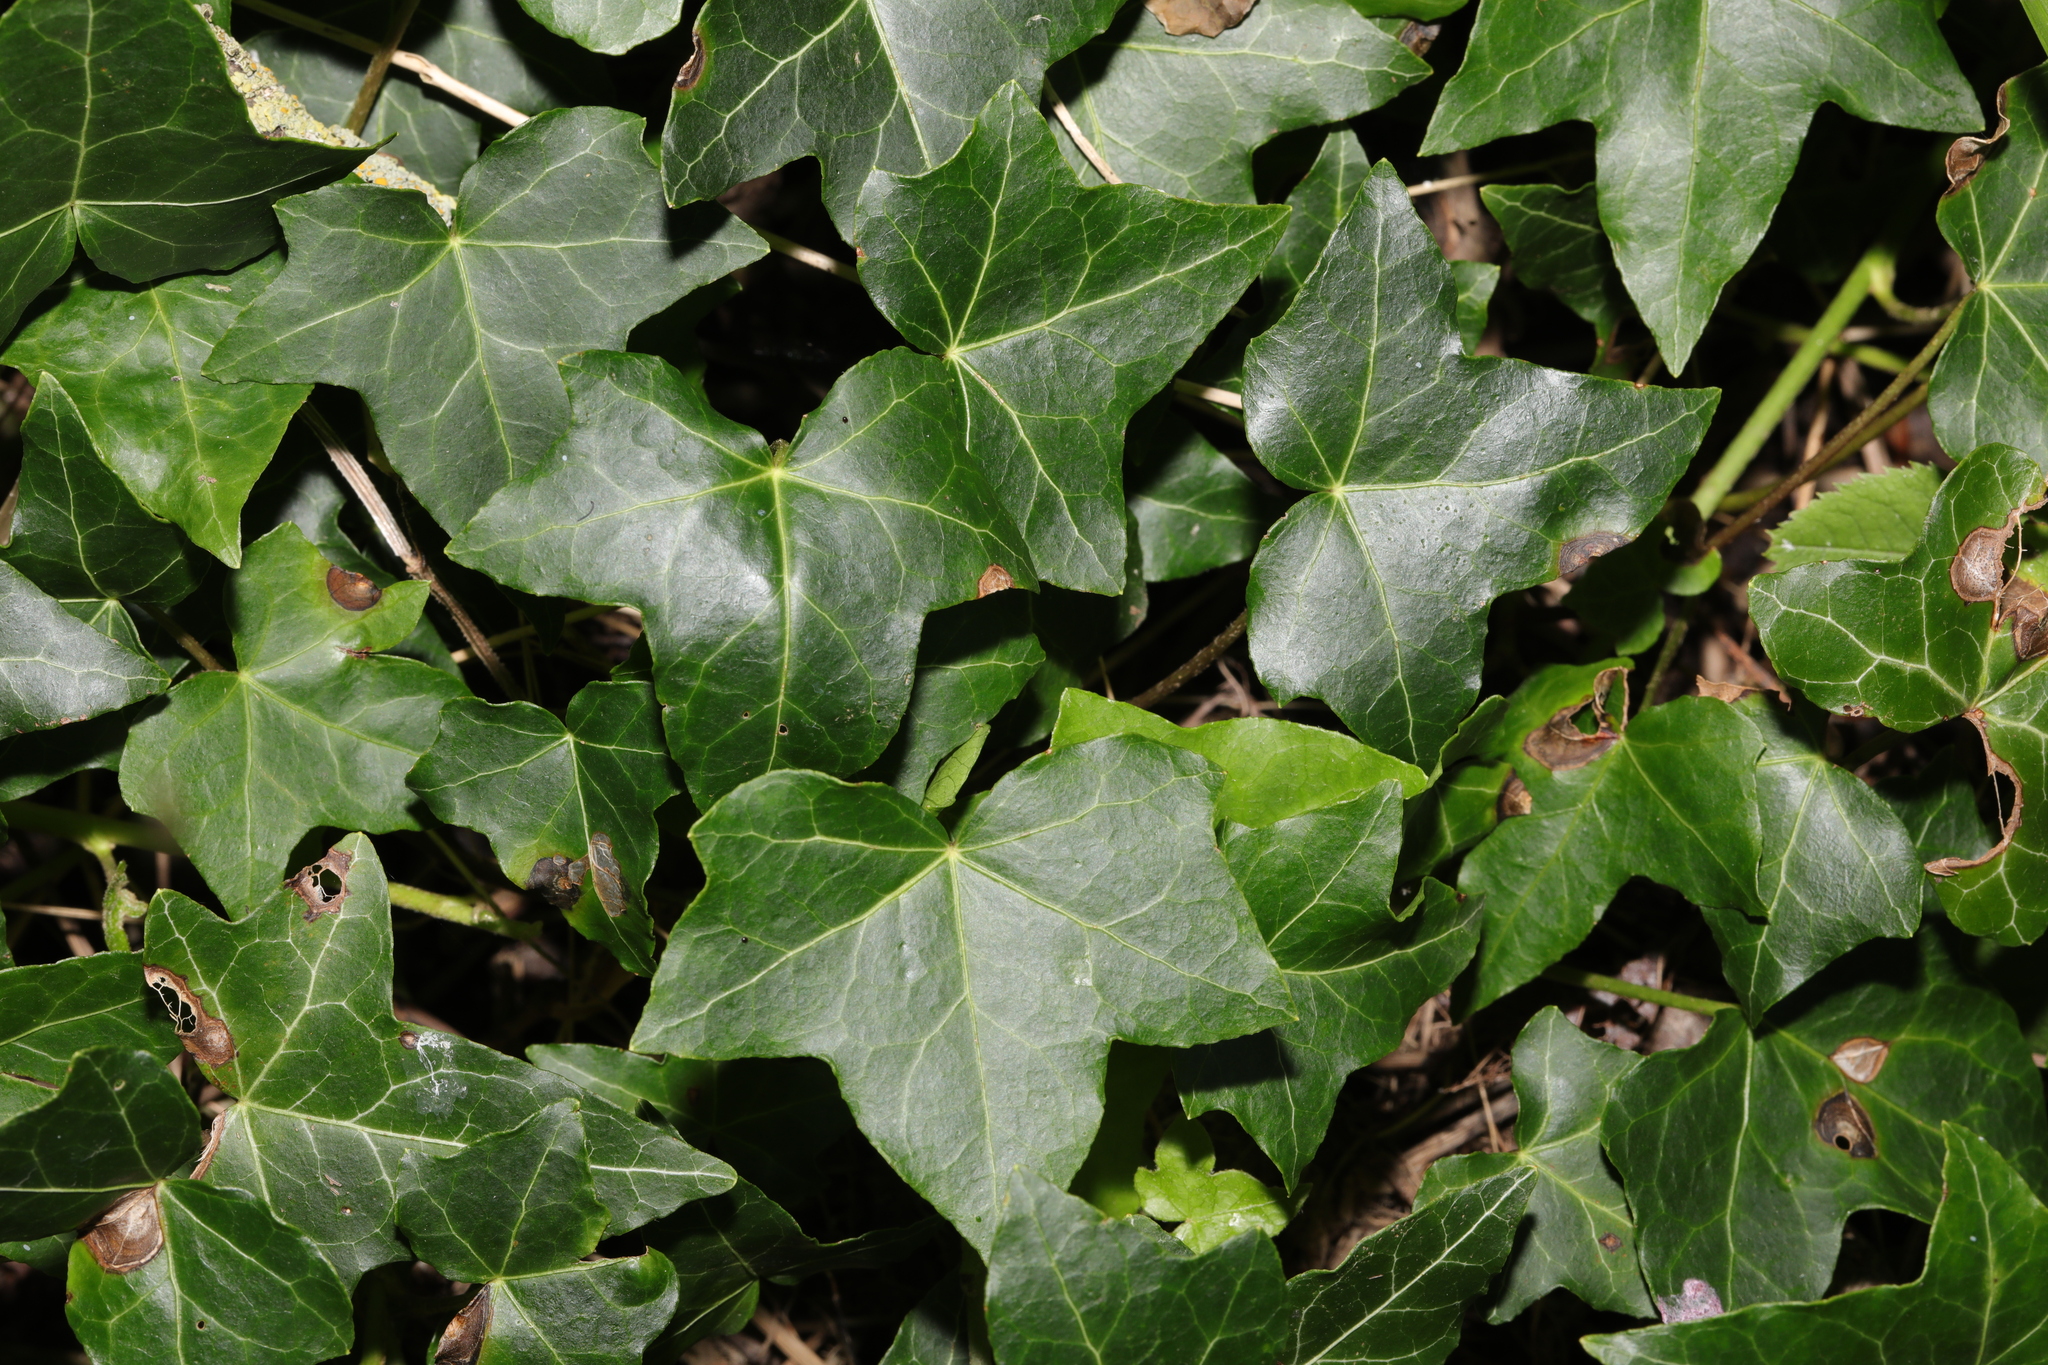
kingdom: Plantae
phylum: Tracheophyta
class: Magnoliopsida
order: Apiales
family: Araliaceae
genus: Hedera
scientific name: Hedera helix
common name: Ivy
